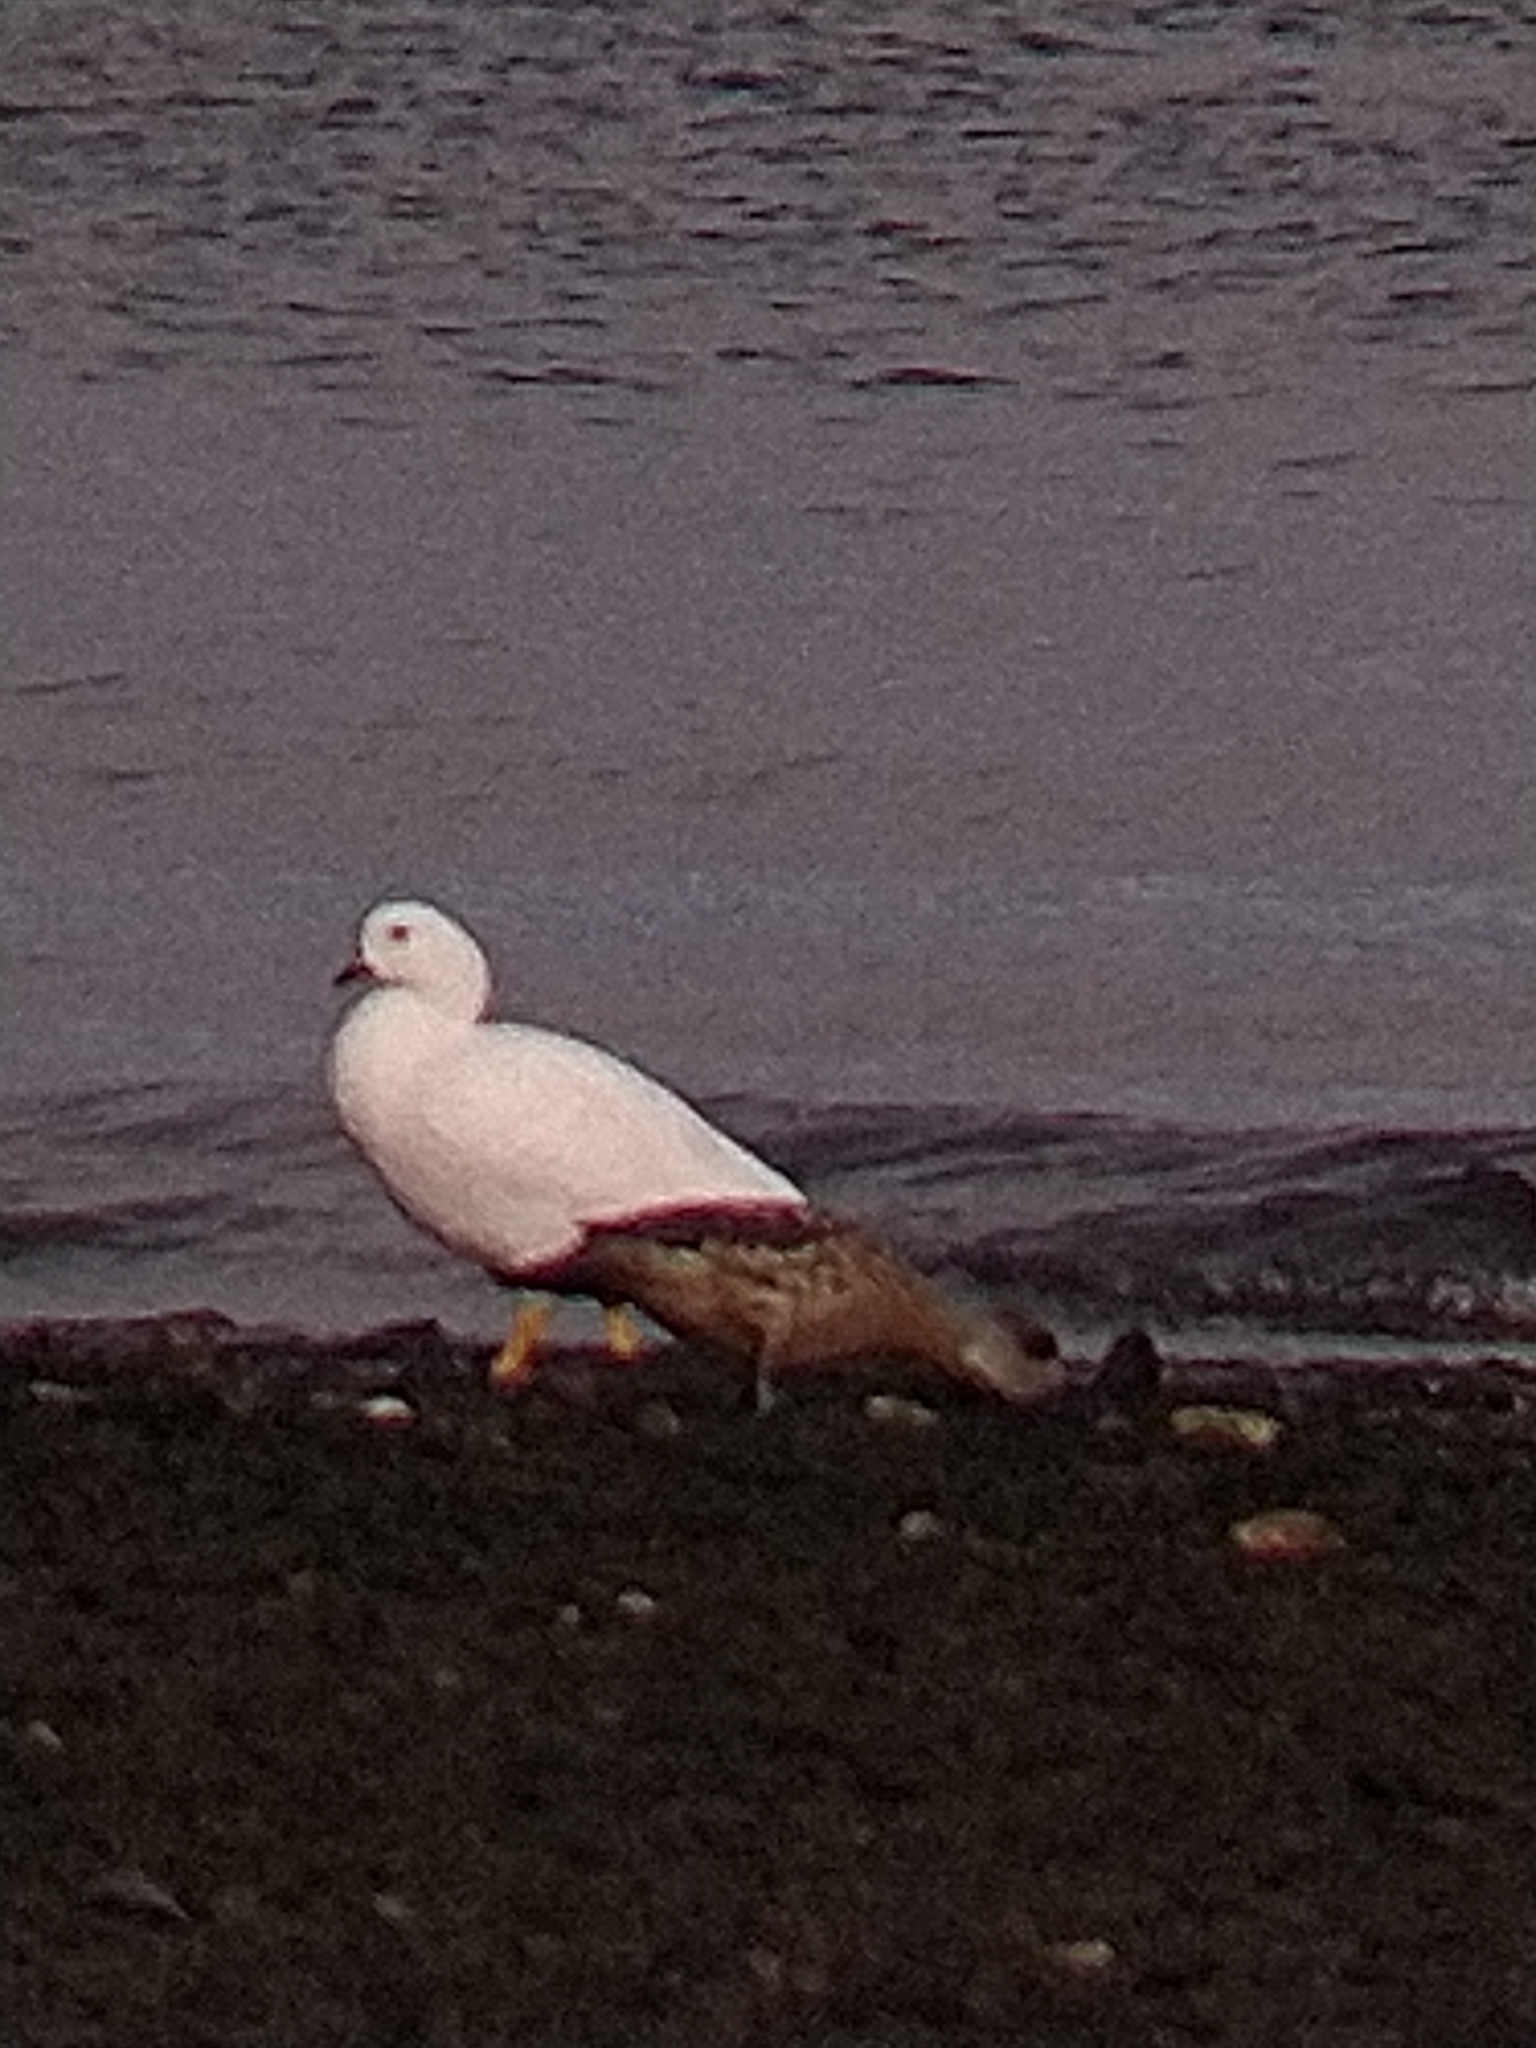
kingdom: Animalia
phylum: Chordata
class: Aves
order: Anseriformes
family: Anatidae
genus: Chloephaga
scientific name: Chloephaga hybrida
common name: Kelp goose
